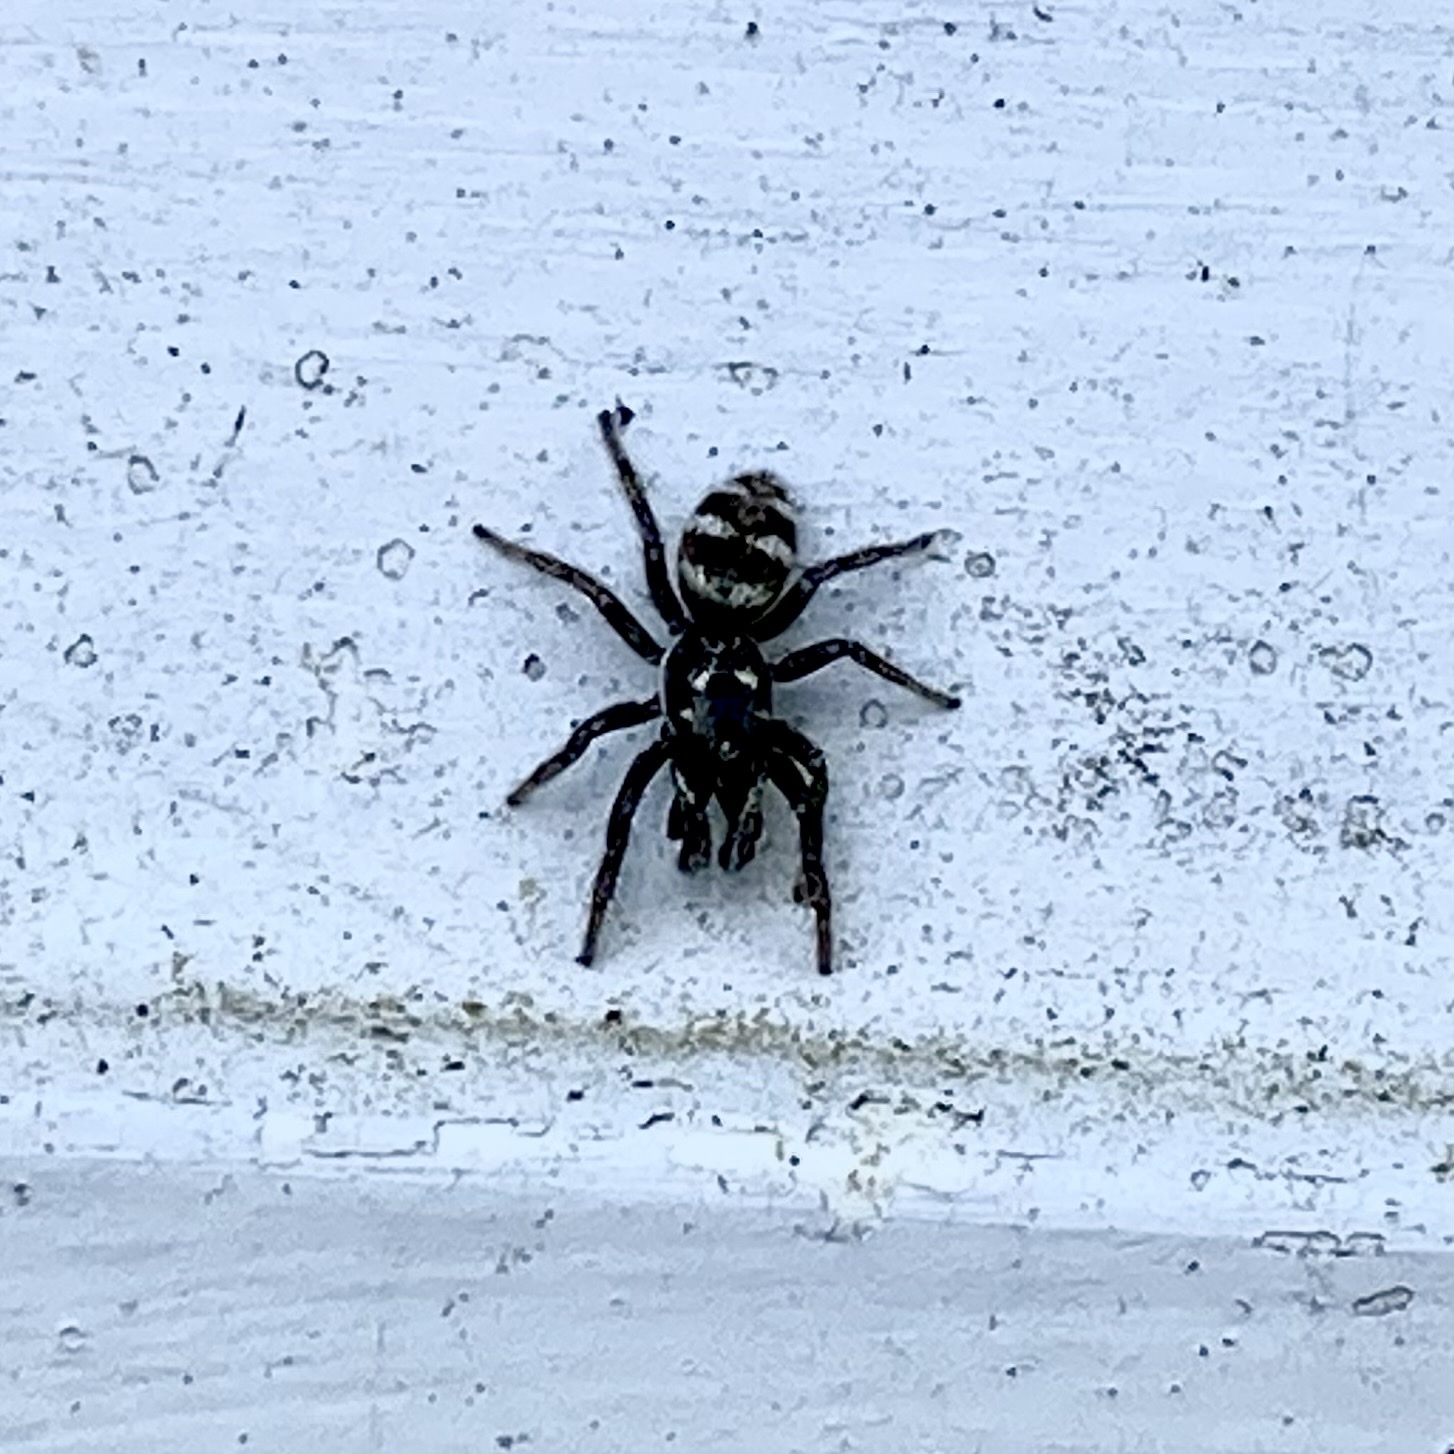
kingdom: Animalia
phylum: Arthropoda
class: Arachnida
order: Araneae
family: Salticidae
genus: Salticus
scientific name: Salticus scenicus
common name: Zebra jumper
